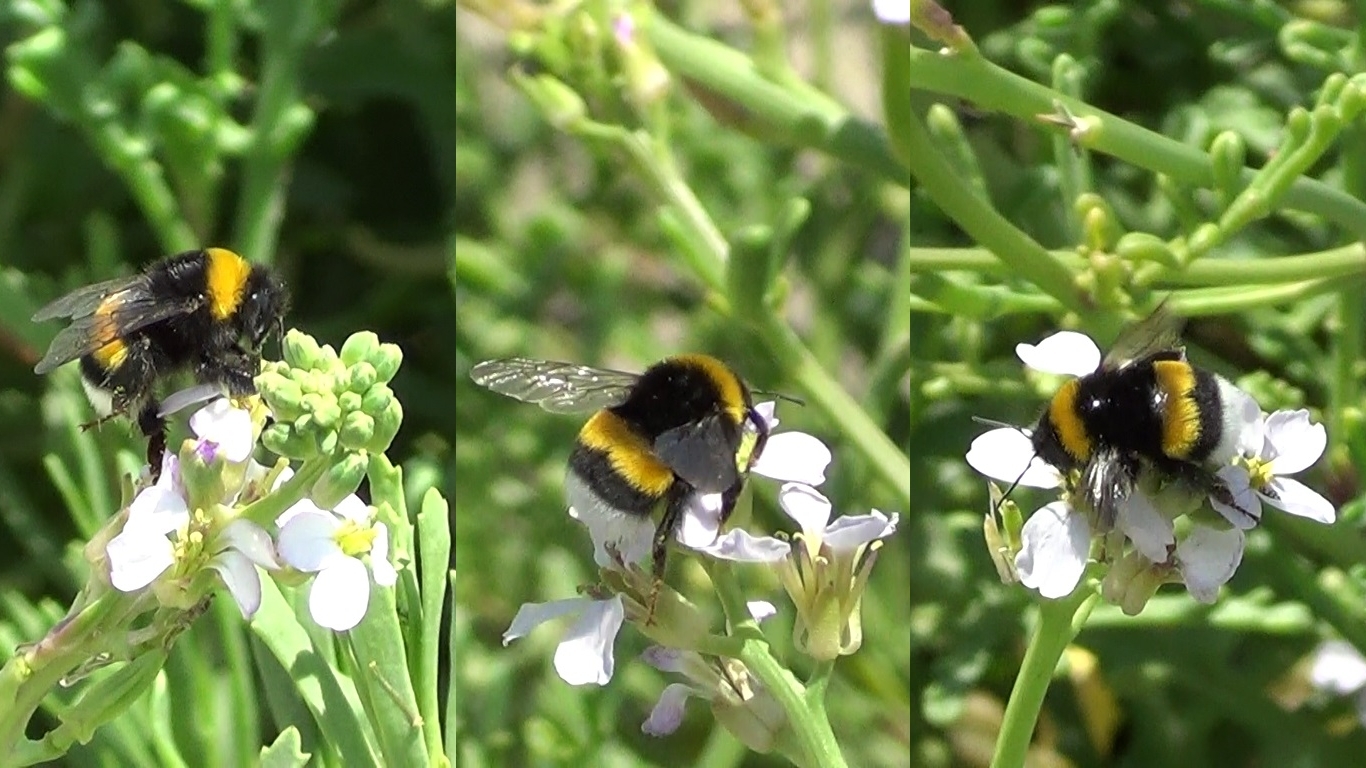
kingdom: Animalia
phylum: Arthropoda
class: Insecta
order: Hymenoptera
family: Apidae
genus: Bombus
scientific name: Bombus terrestris
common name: Buff-tailed bumblebee
